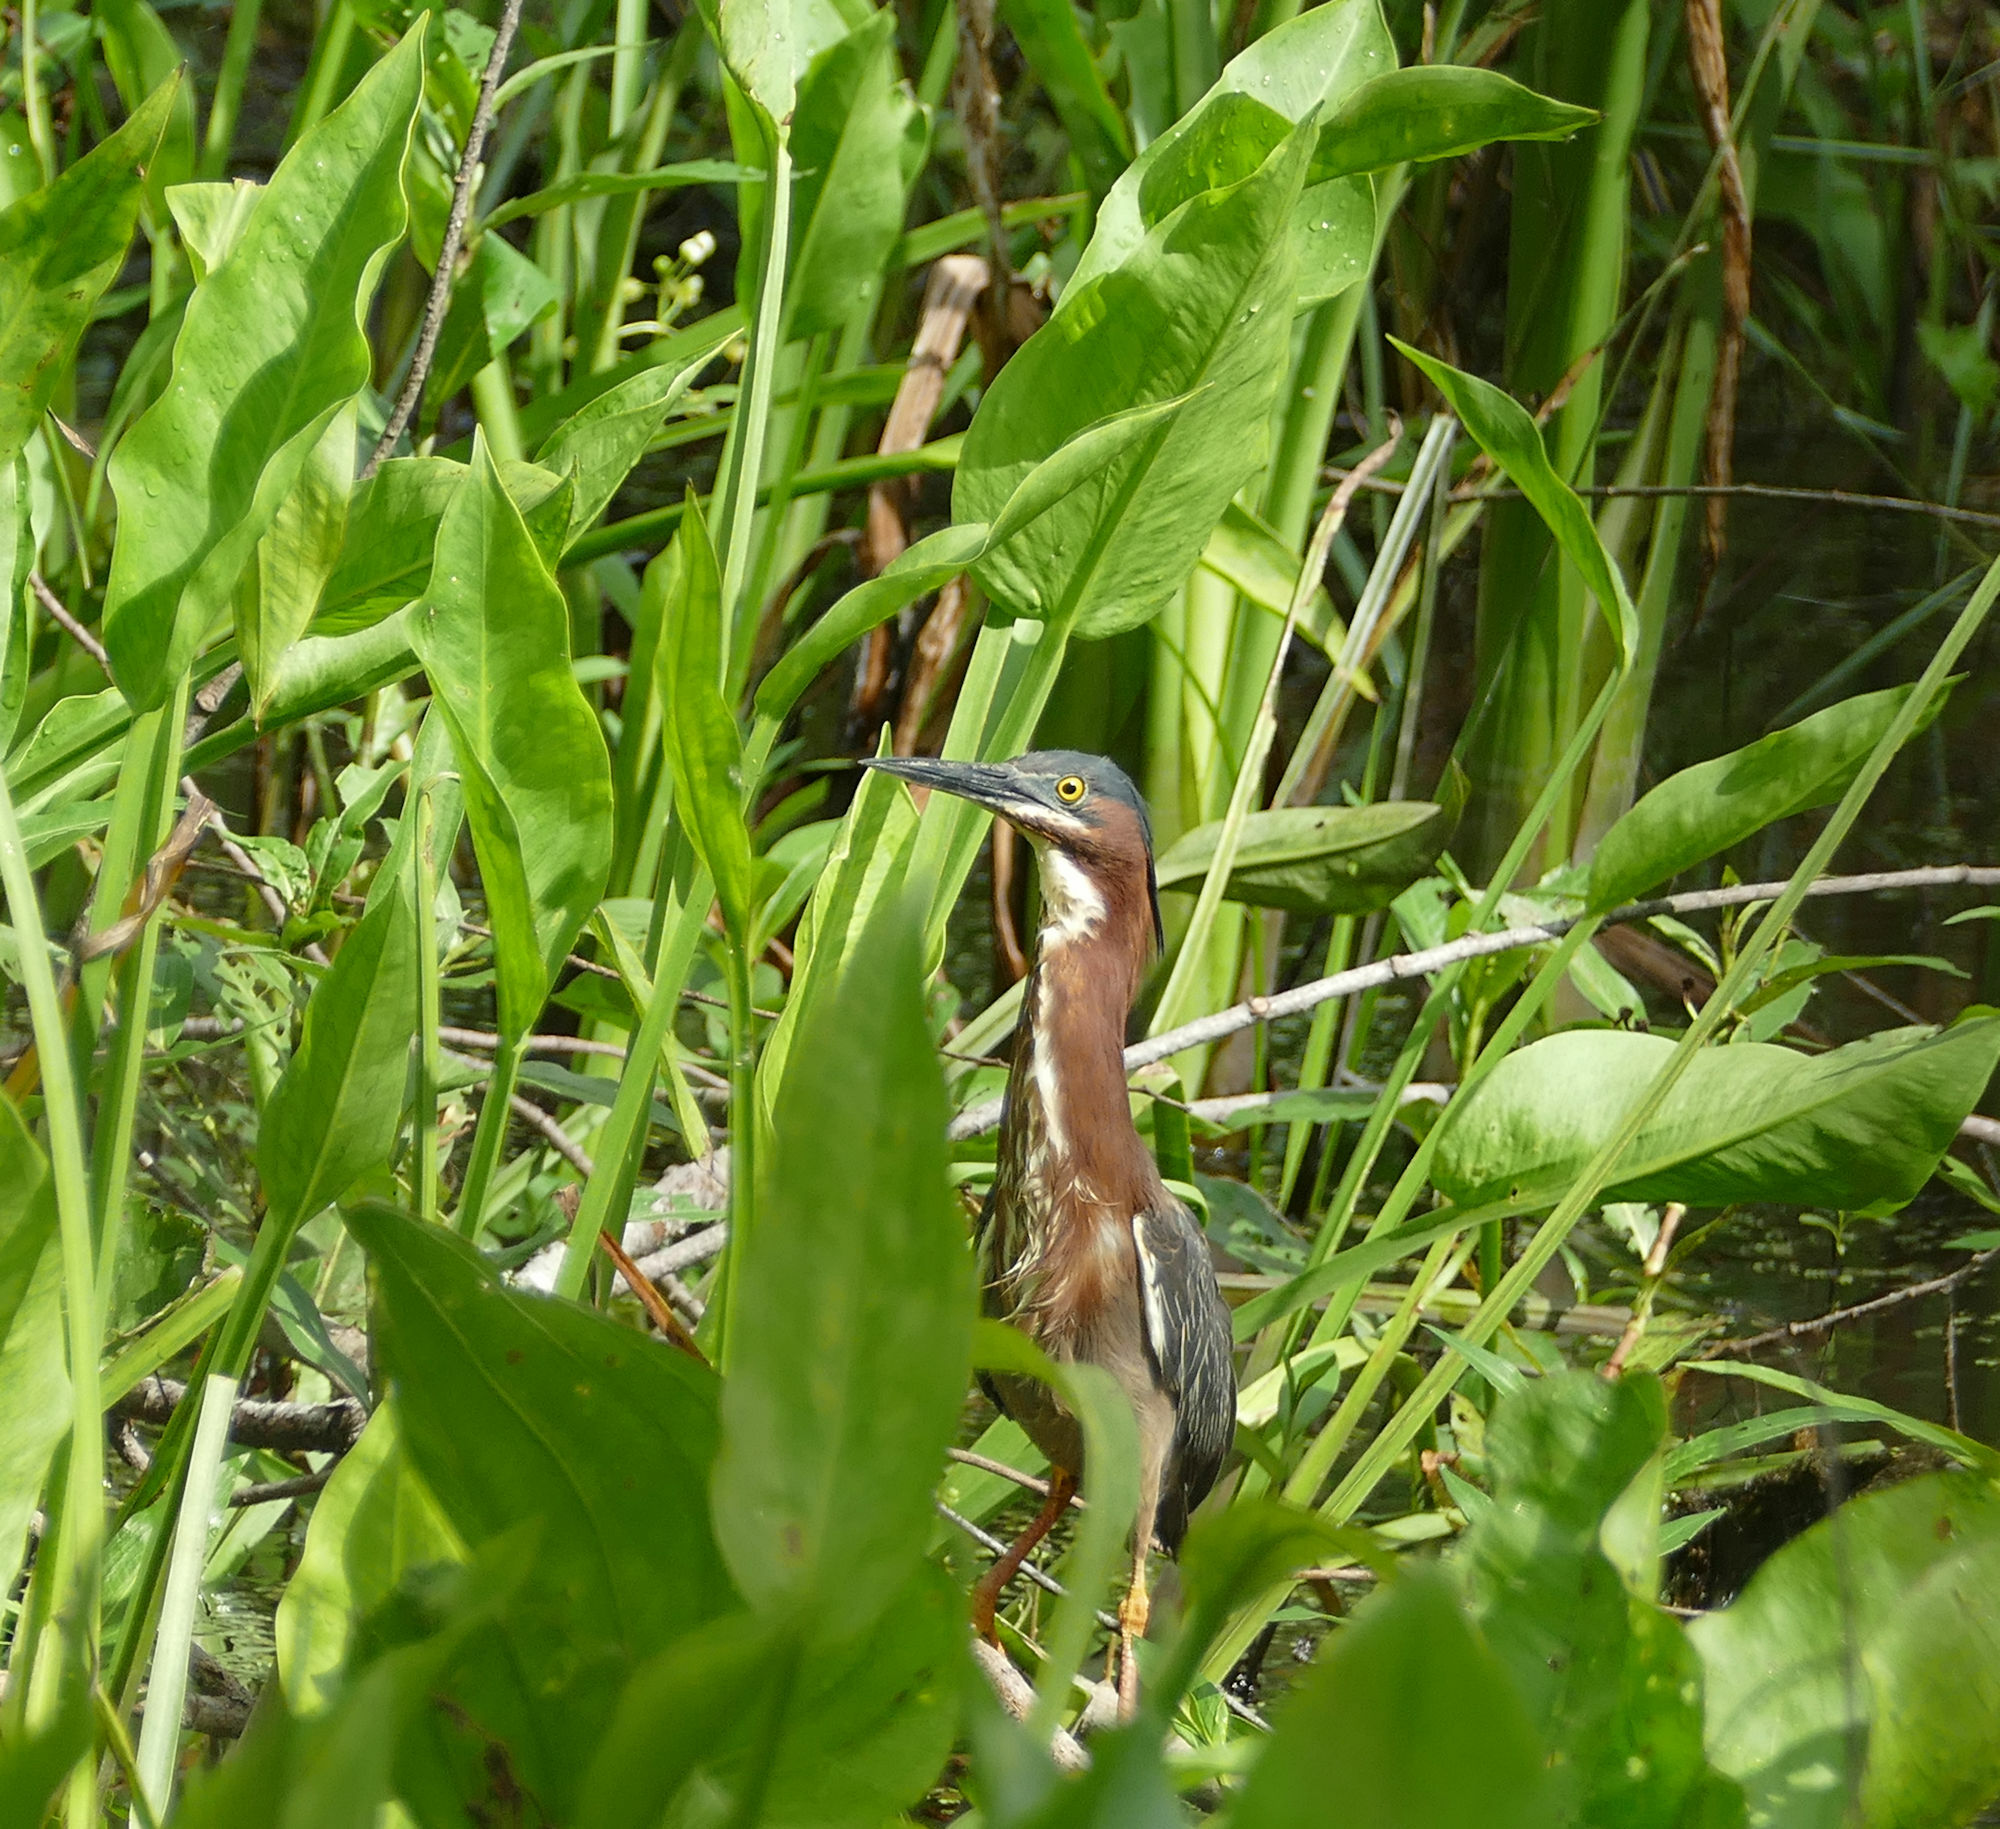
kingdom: Animalia
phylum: Chordata
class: Aves
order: Pelecaniformes
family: Ardeidae
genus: Butorides
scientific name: Butorides virescens
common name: Green heron
